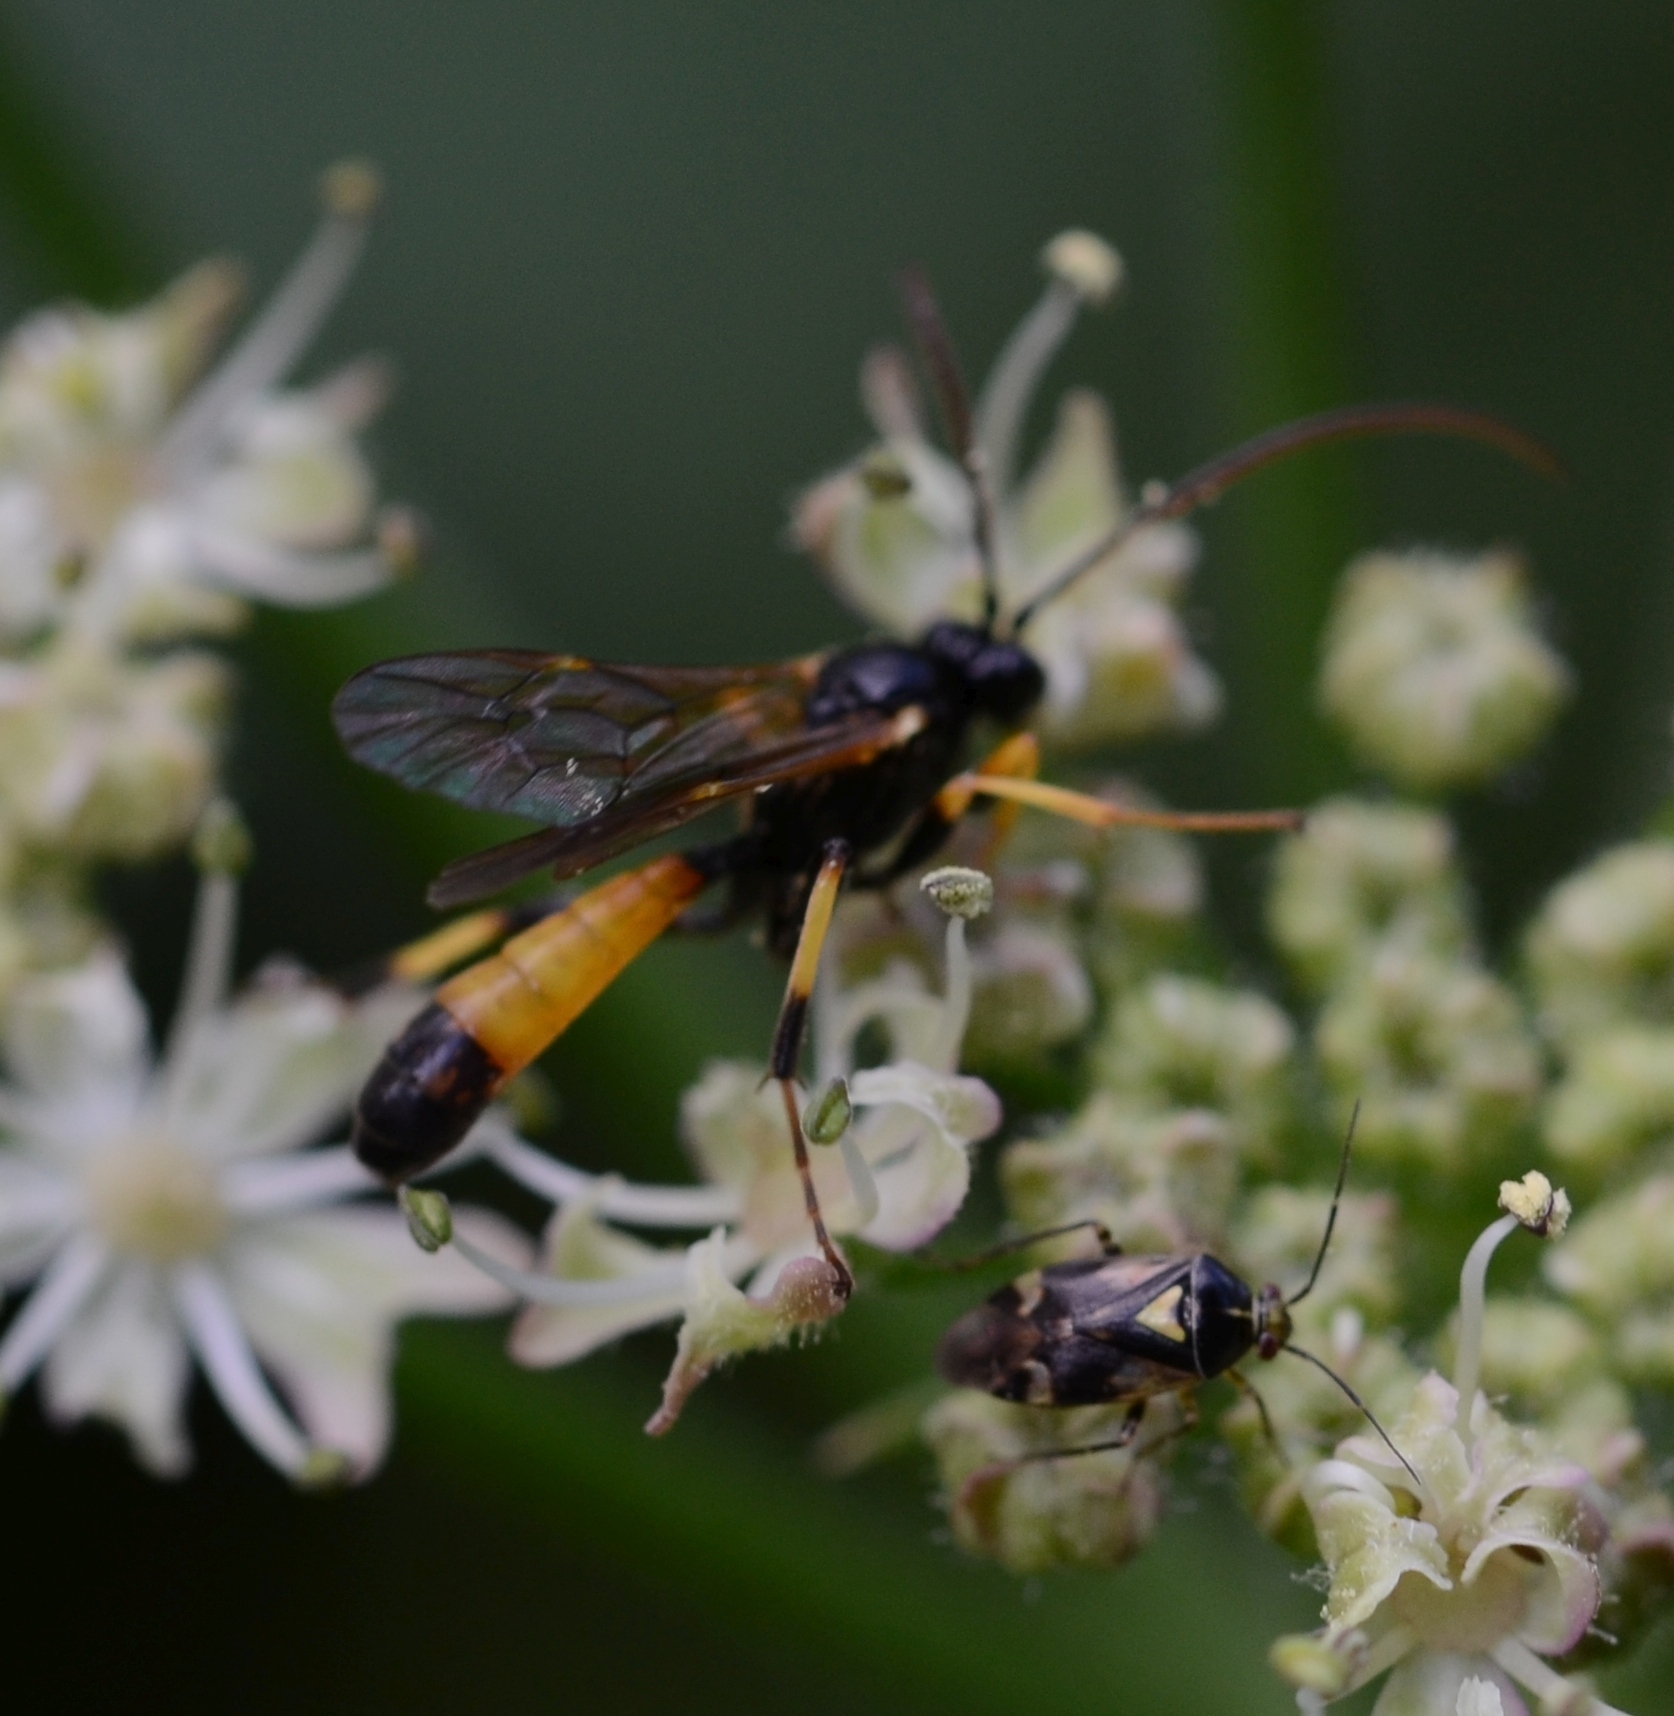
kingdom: Animalia
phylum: Arthropoda
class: Insecta
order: Hemiptera
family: Miridae
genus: Liocoris
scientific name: Liocoris tripustulatus
